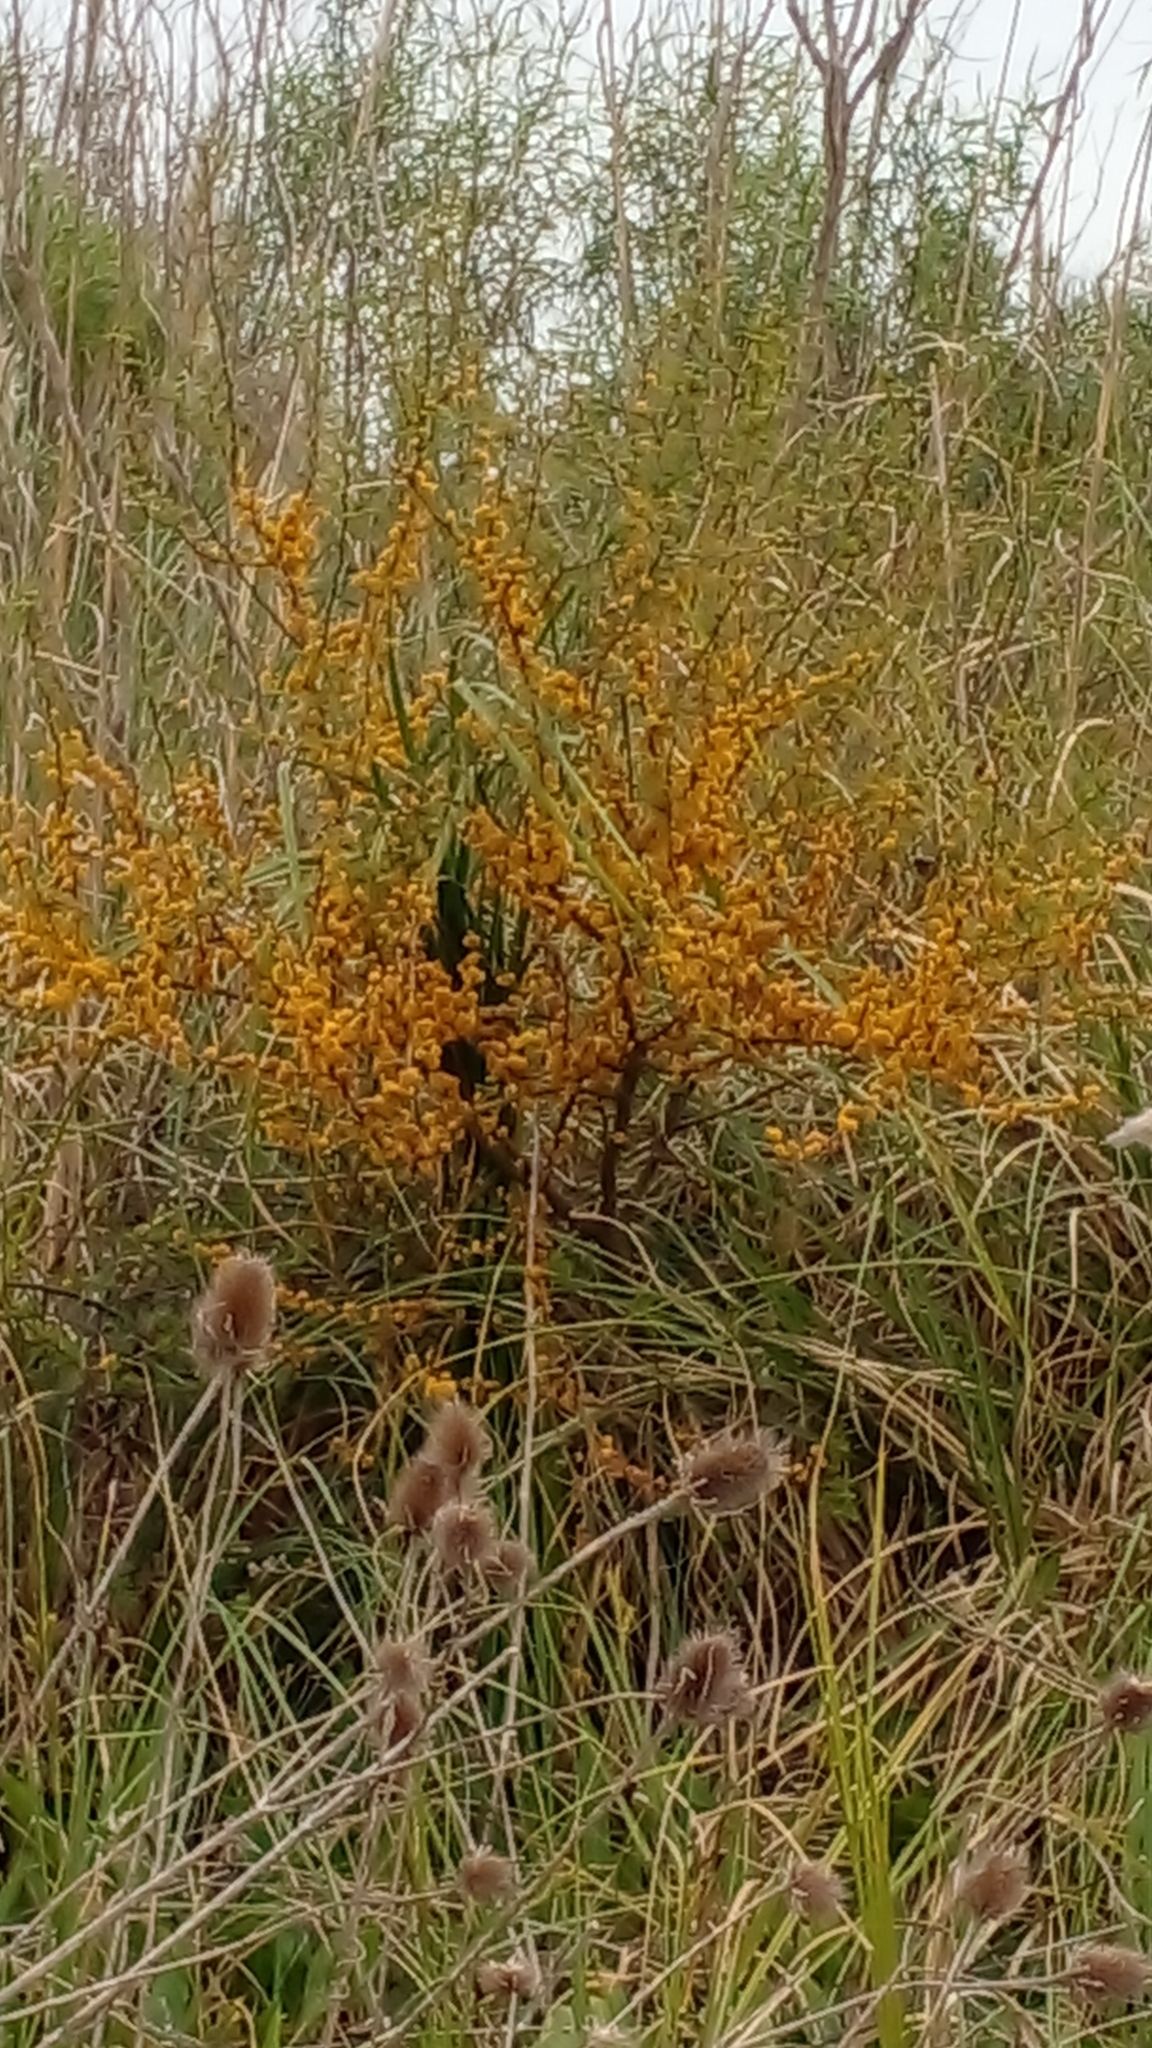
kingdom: Plantae
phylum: Tracheophyta
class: Magnoliopsida
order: Fabales
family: Fabaceae
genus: Vachellia
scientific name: Vachellia caven
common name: Roman cassie
